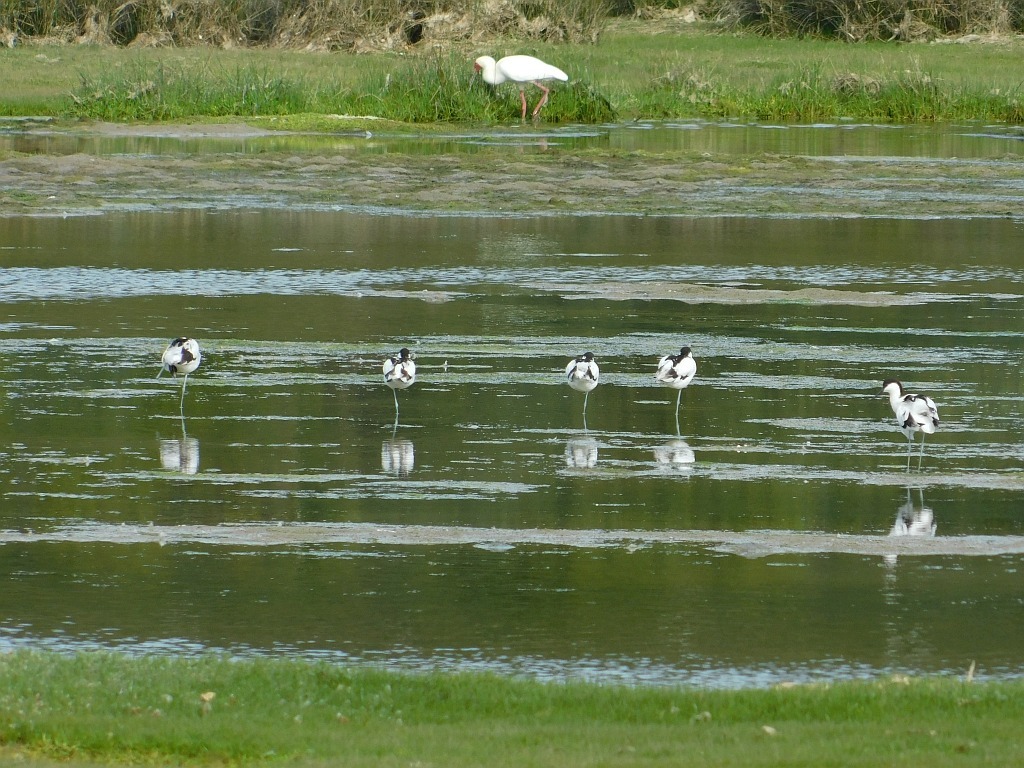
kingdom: Animalia
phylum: Chordata
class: Aves
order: Charadriiformes
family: Recurvirostridae
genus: Recurvirostra
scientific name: Recurvirostra avosetta
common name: Pied avocet
